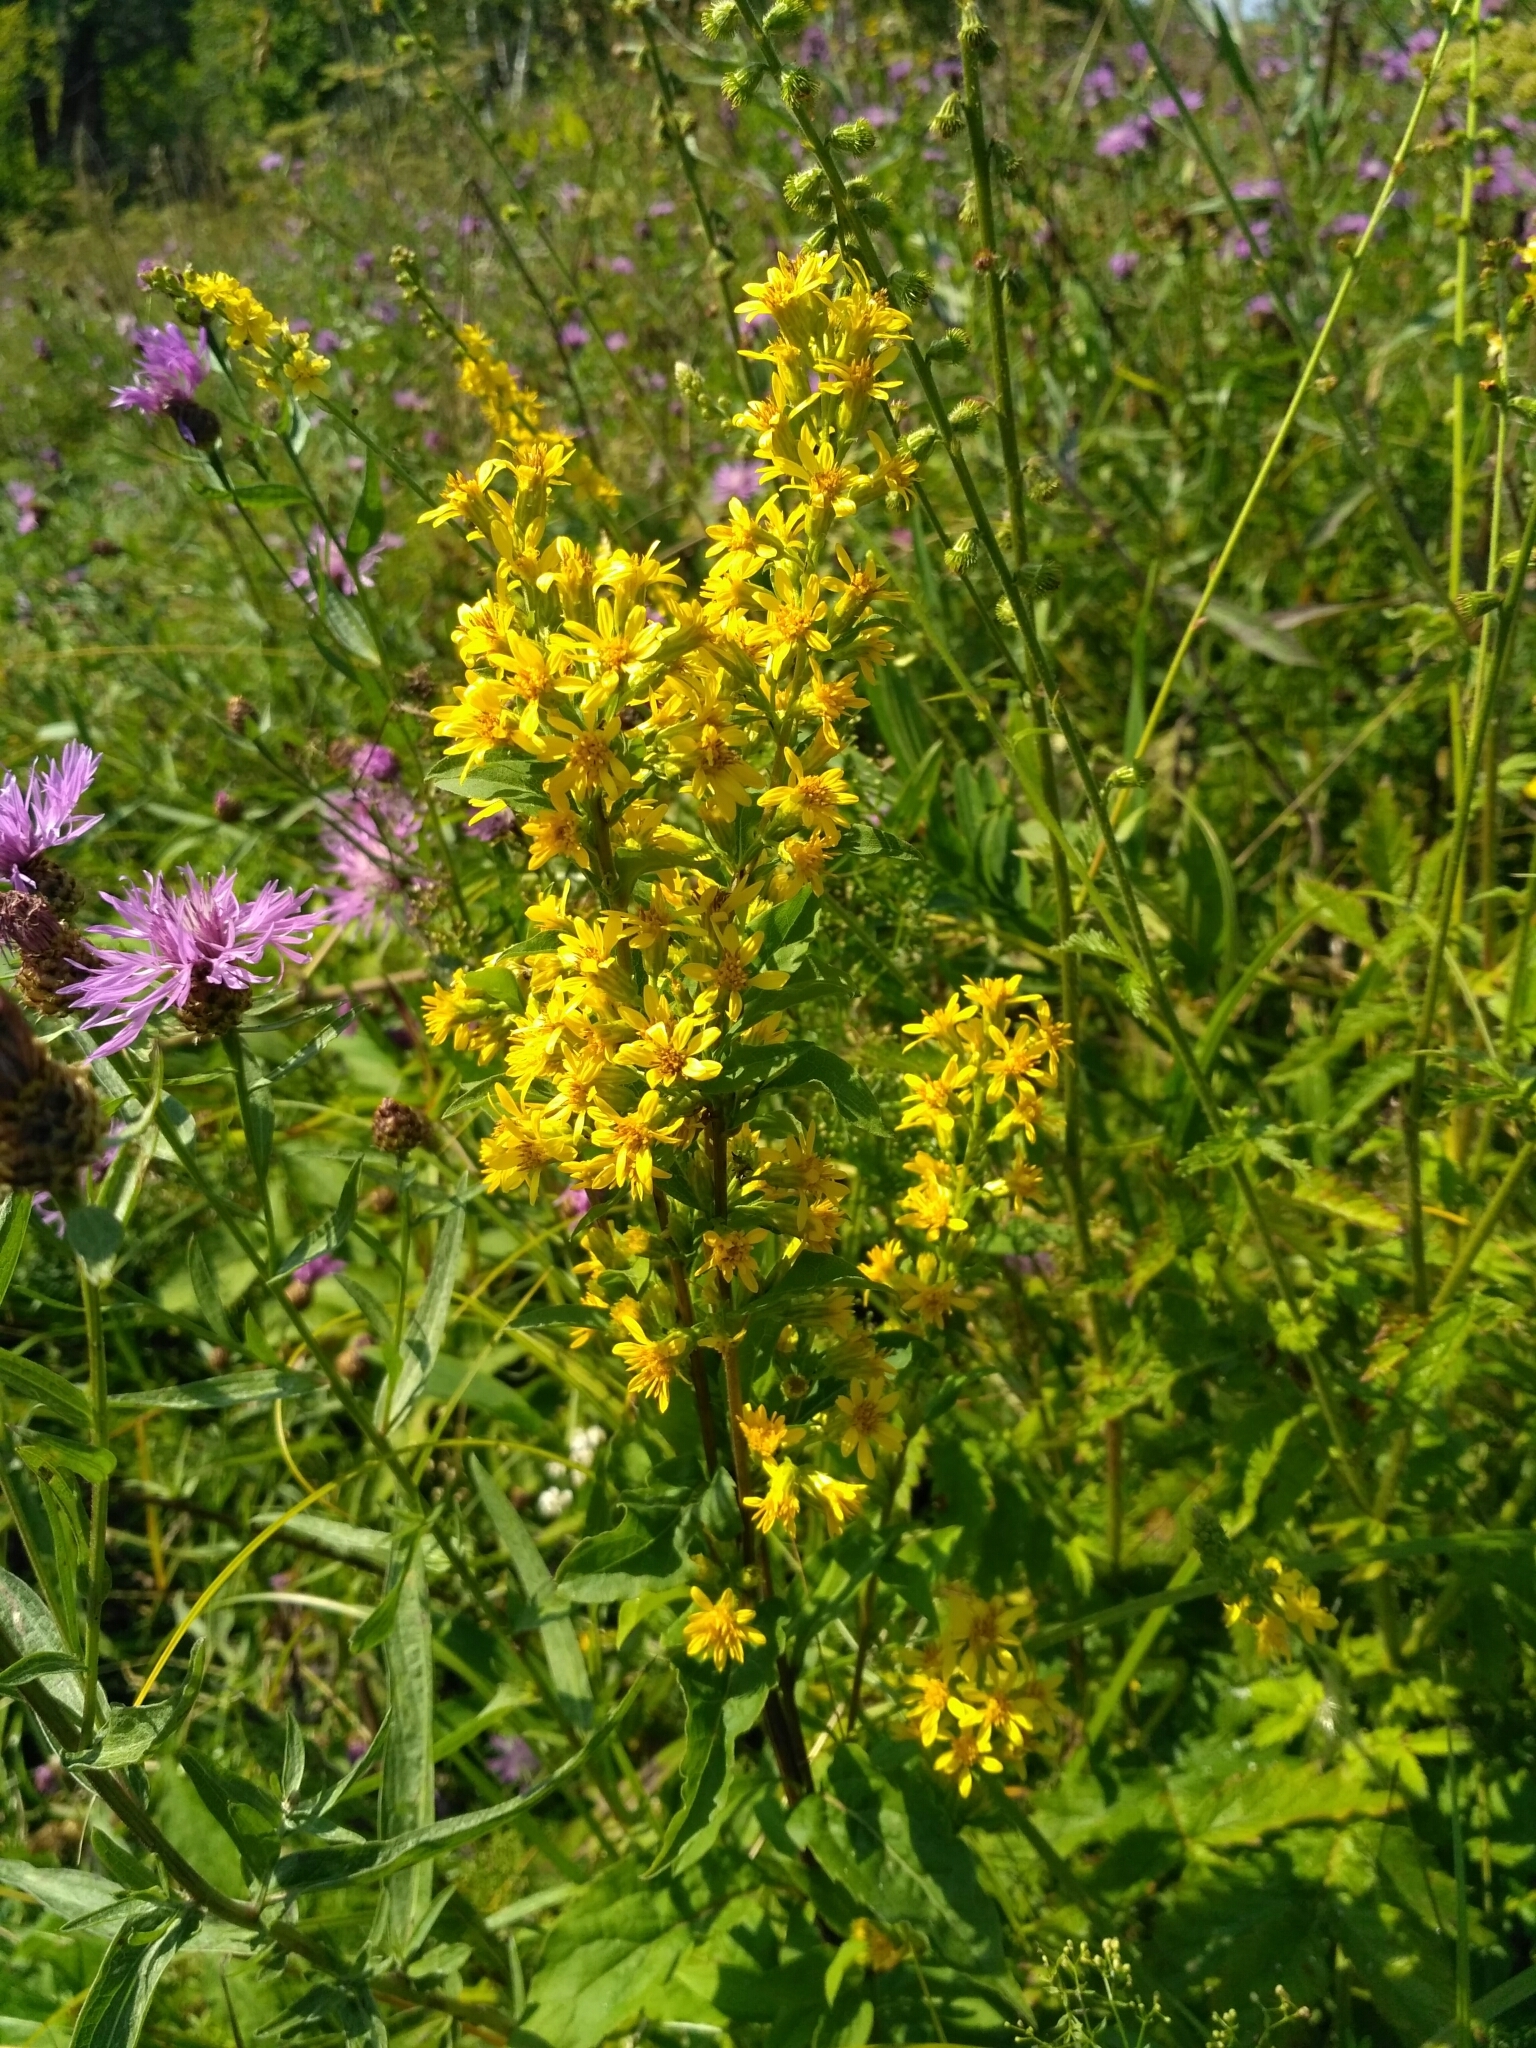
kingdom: Plantae
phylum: Tracheophyta
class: Magnoliopsida
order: Asterales
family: Asteraceae
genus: Solidago
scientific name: Solidago virgaurea
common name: Goldenrod
